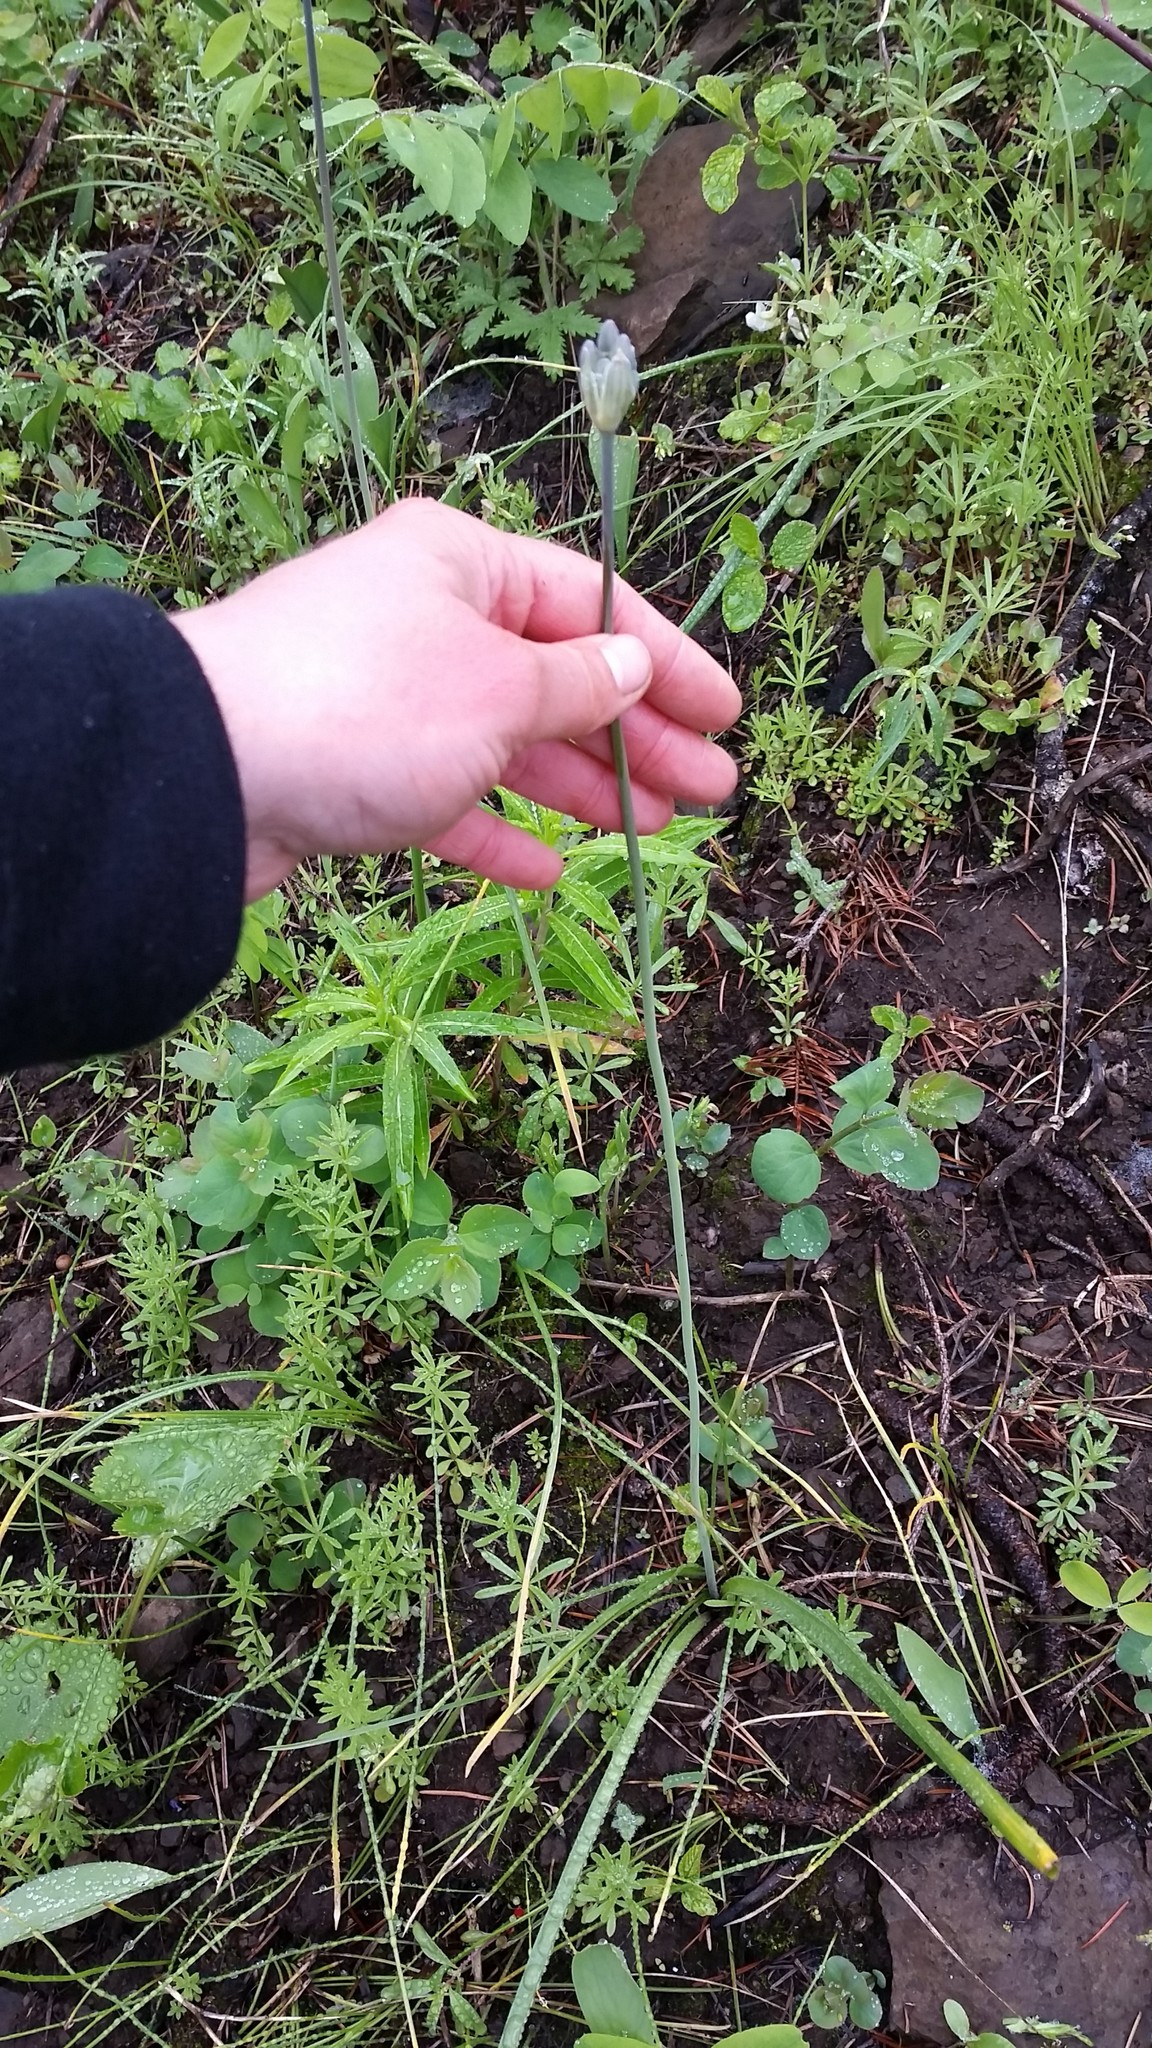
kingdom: Plantae
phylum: Tracheophyta
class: Liliopsida
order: Asparagales
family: Asparagaceae
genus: Triteleia
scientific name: Triteleia grandiflora
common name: Wild hyacinth
